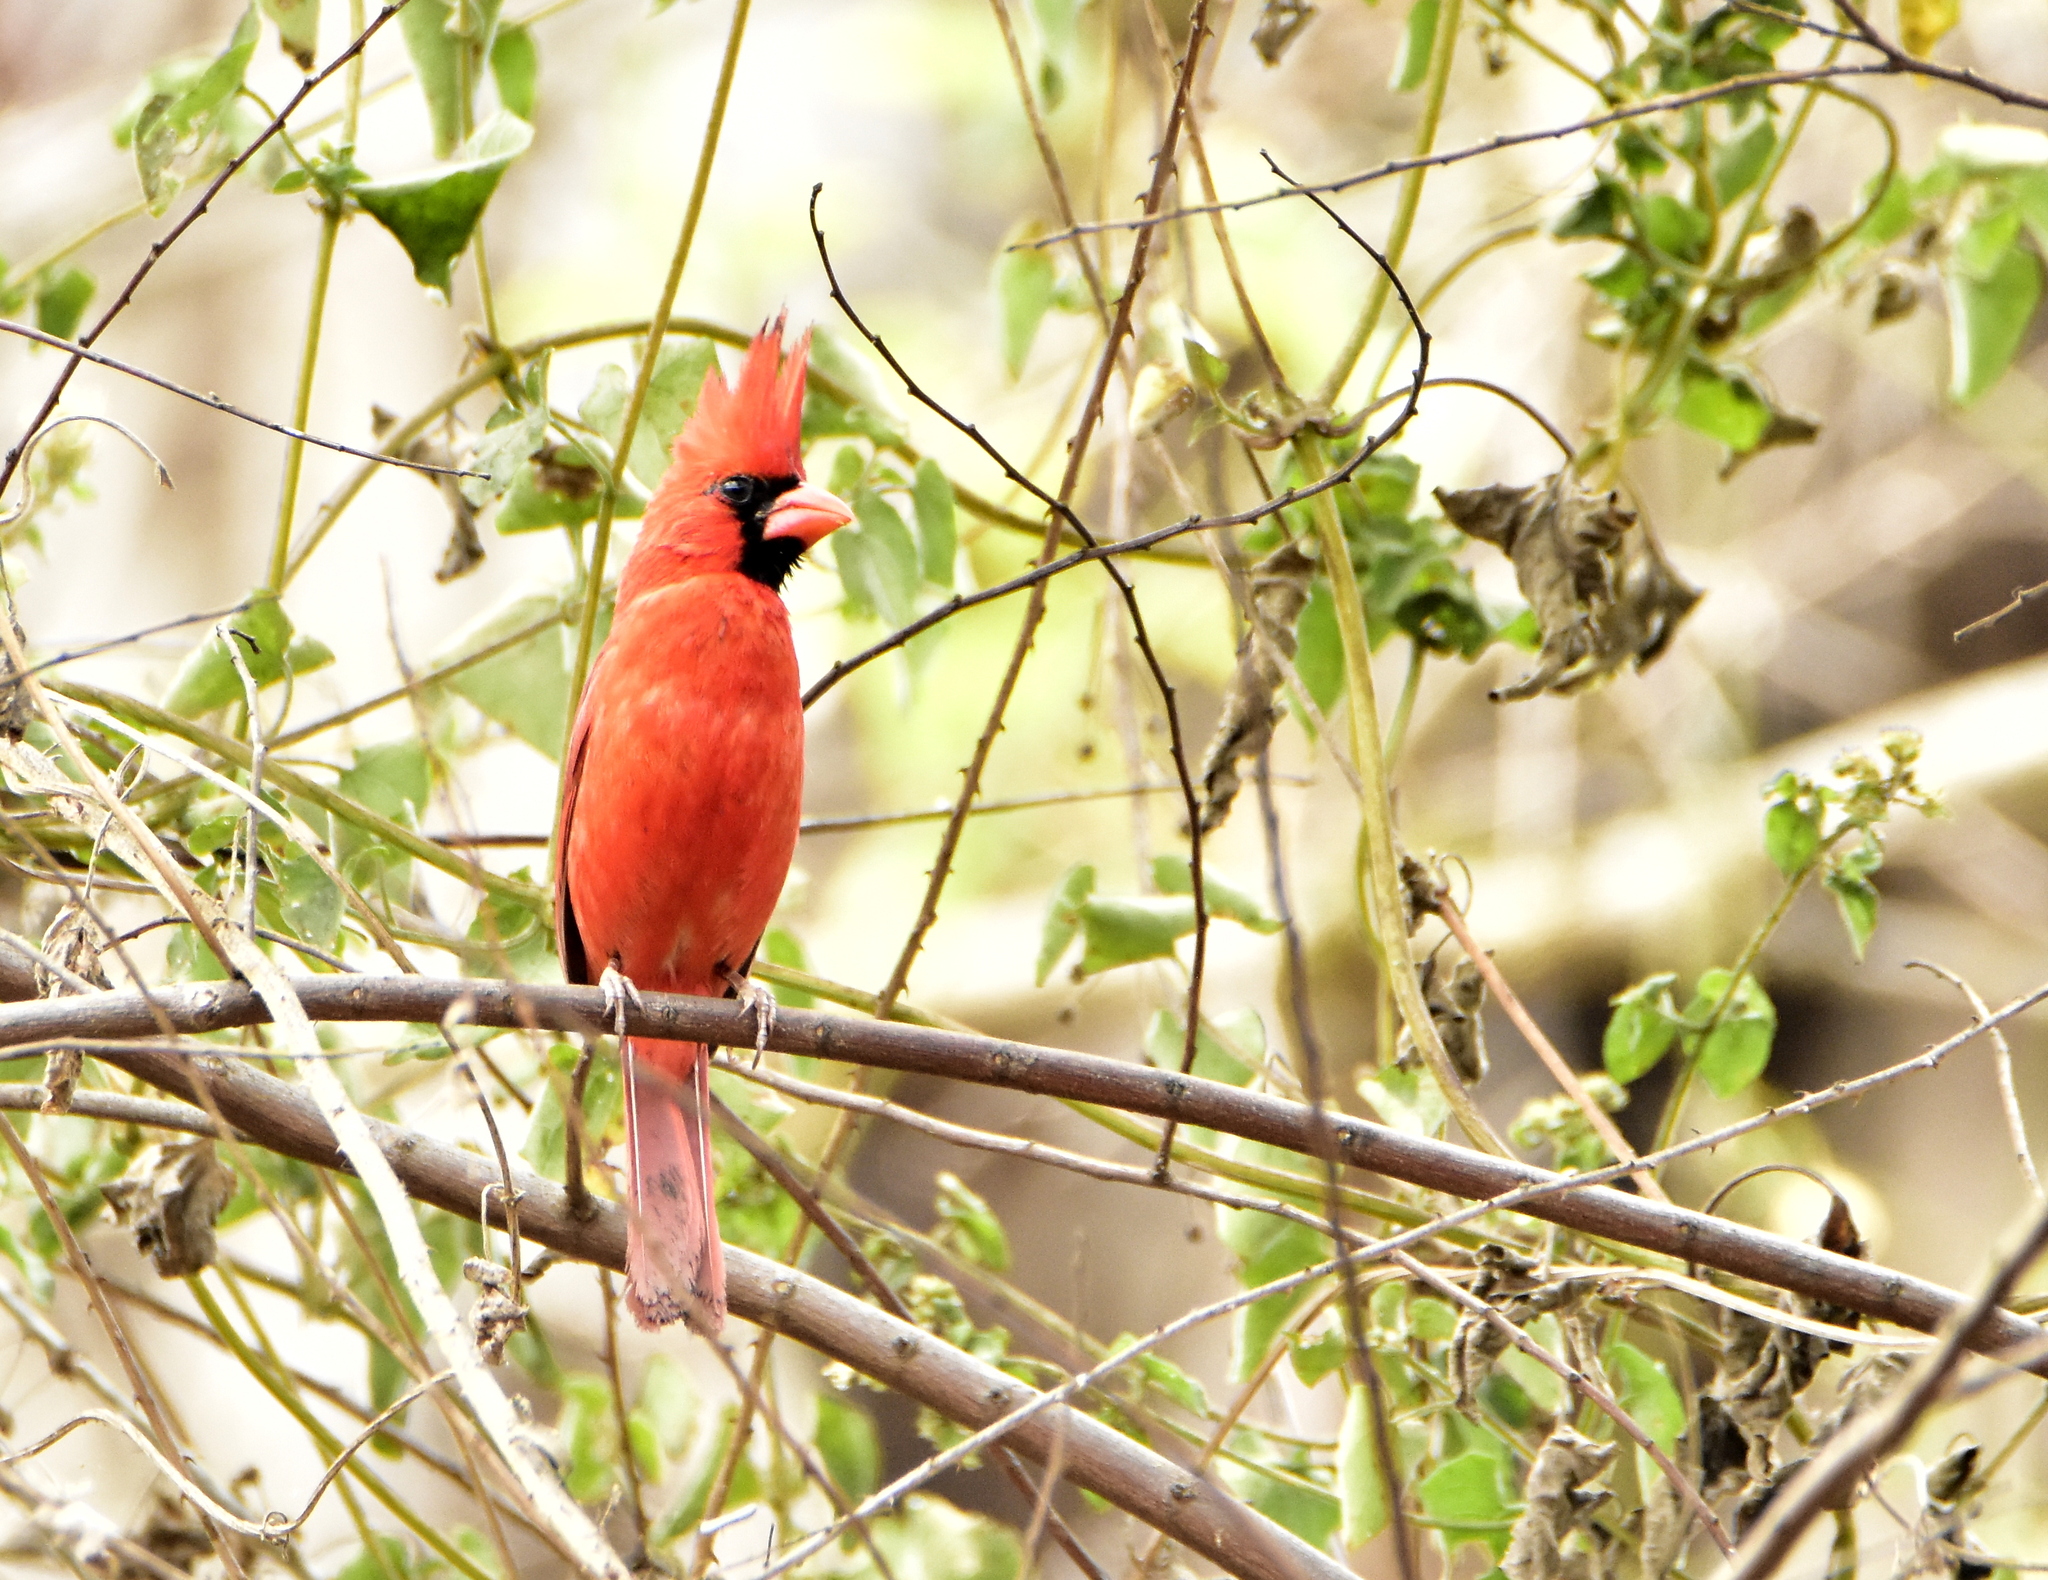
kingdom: Animalia
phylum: Chordata
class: Aves
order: Passeriformes
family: Cardinalidae
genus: Cardinalis
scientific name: Cardinalis cardinalis
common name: Northern cardinal
